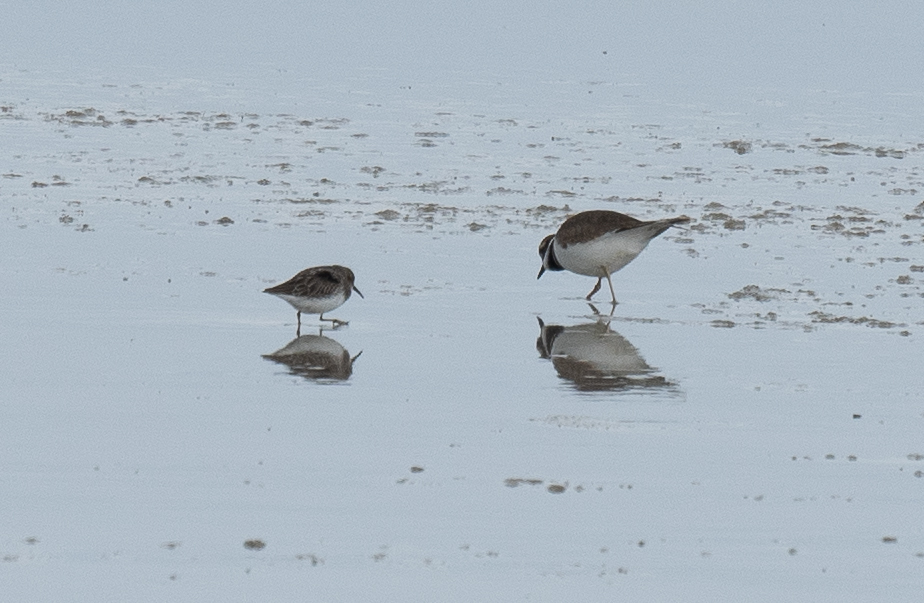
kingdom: Animalia
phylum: Chordata
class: Aves
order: Charadriiformes
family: Charadriidae
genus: Charadrius
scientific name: Charadrius vociferus
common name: Killdeer
